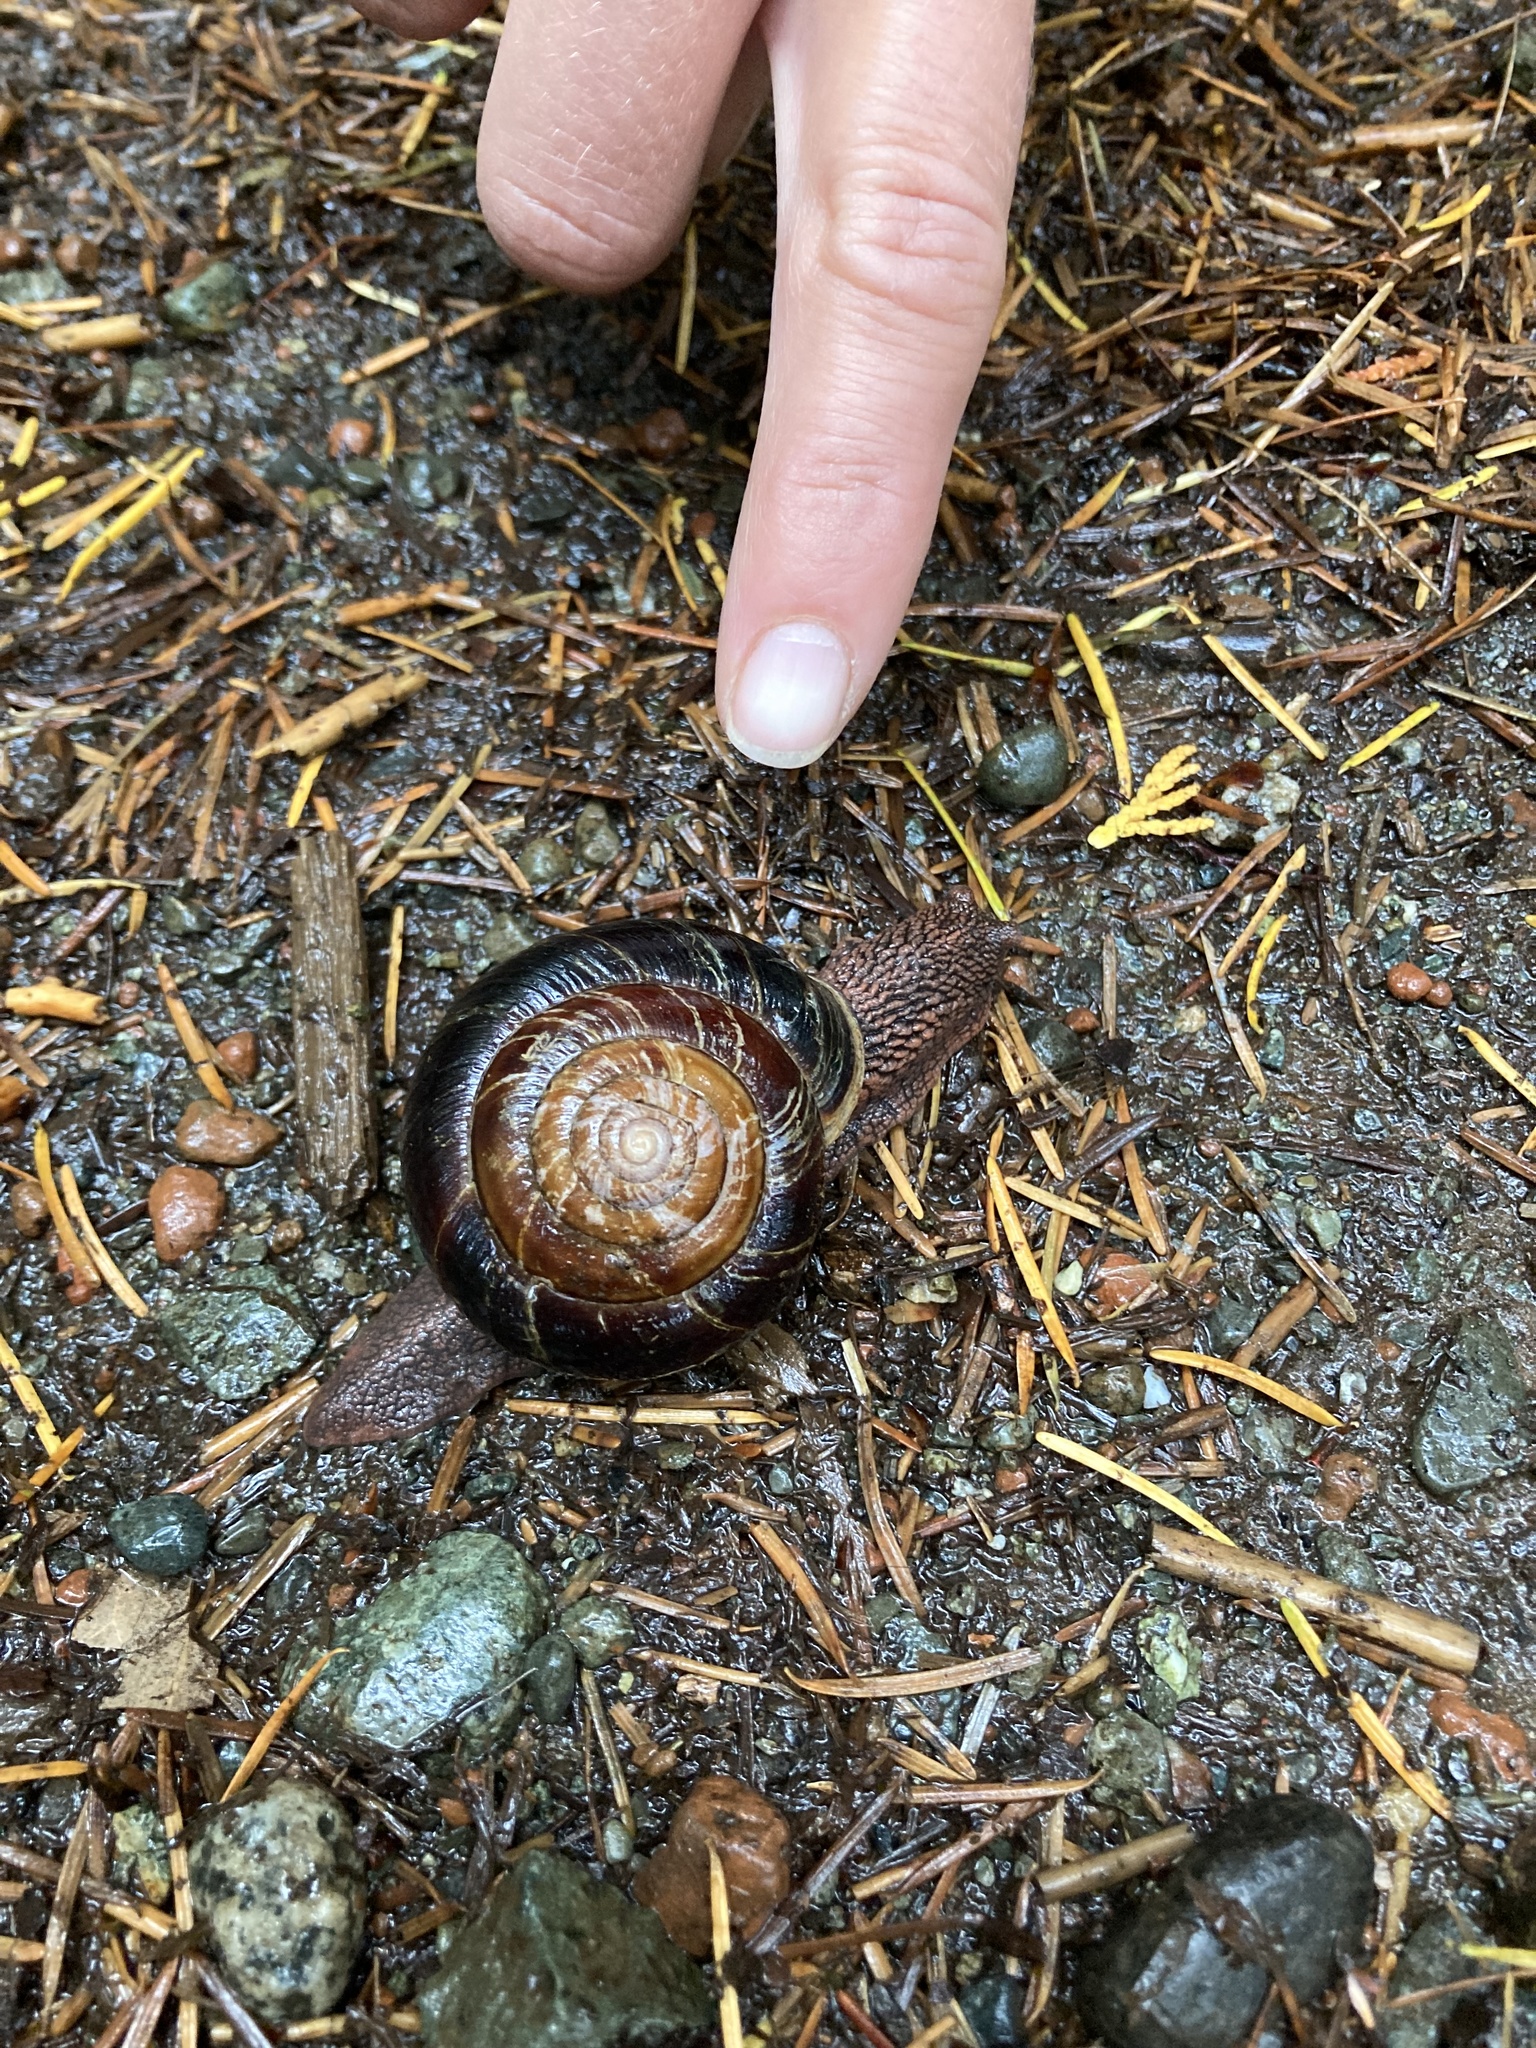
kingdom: Animalia
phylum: Mollusca
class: Gastropoda
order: Stylommatophora
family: Xanthonychidae
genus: Monadenia
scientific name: Monadenia fidelis
